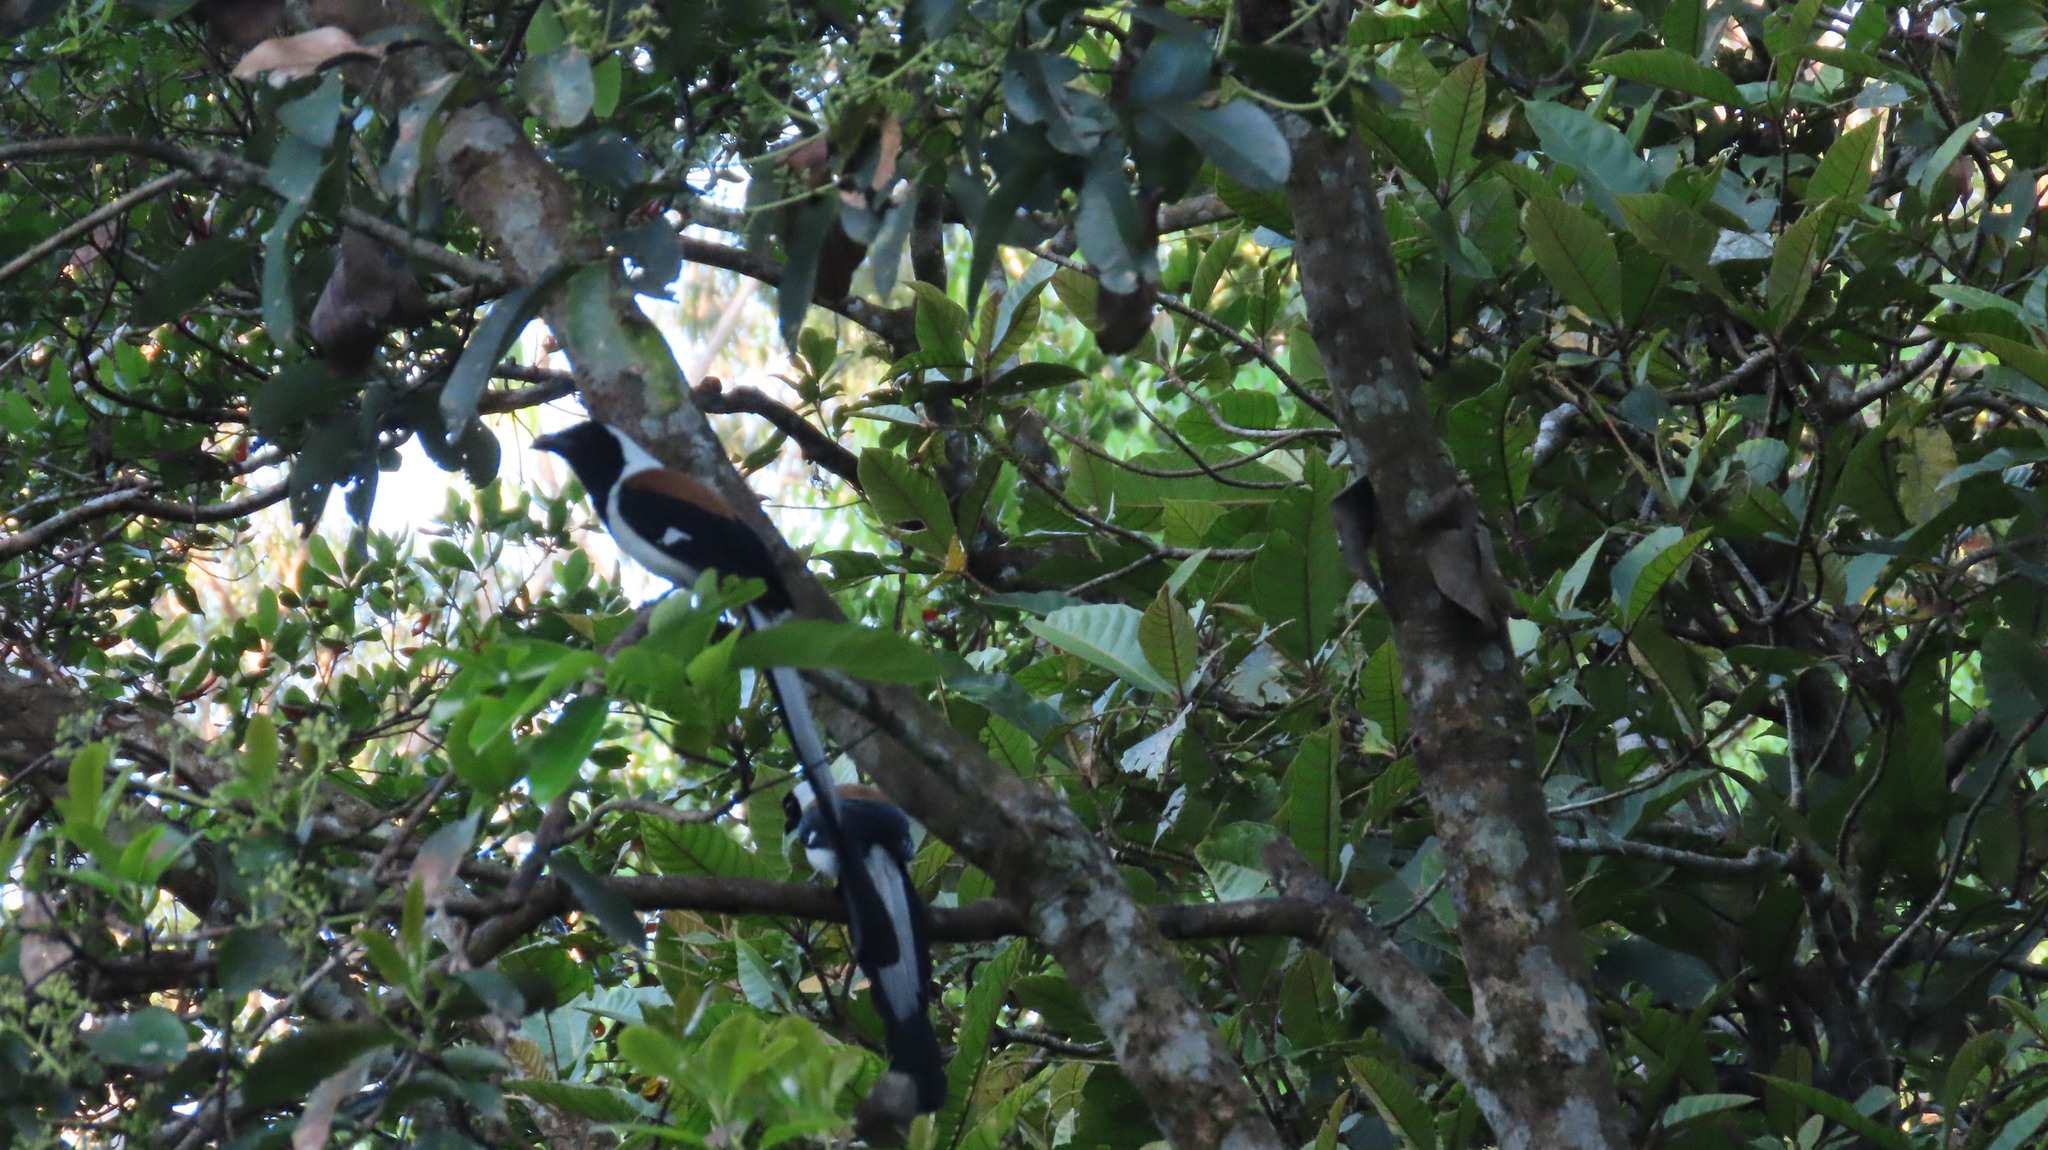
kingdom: Animalia
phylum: Chordata
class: Aves
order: Passeriformes
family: Corvidae
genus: Dendrocitta
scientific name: Dendrocitta leucogastra
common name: White-bellied treepie
